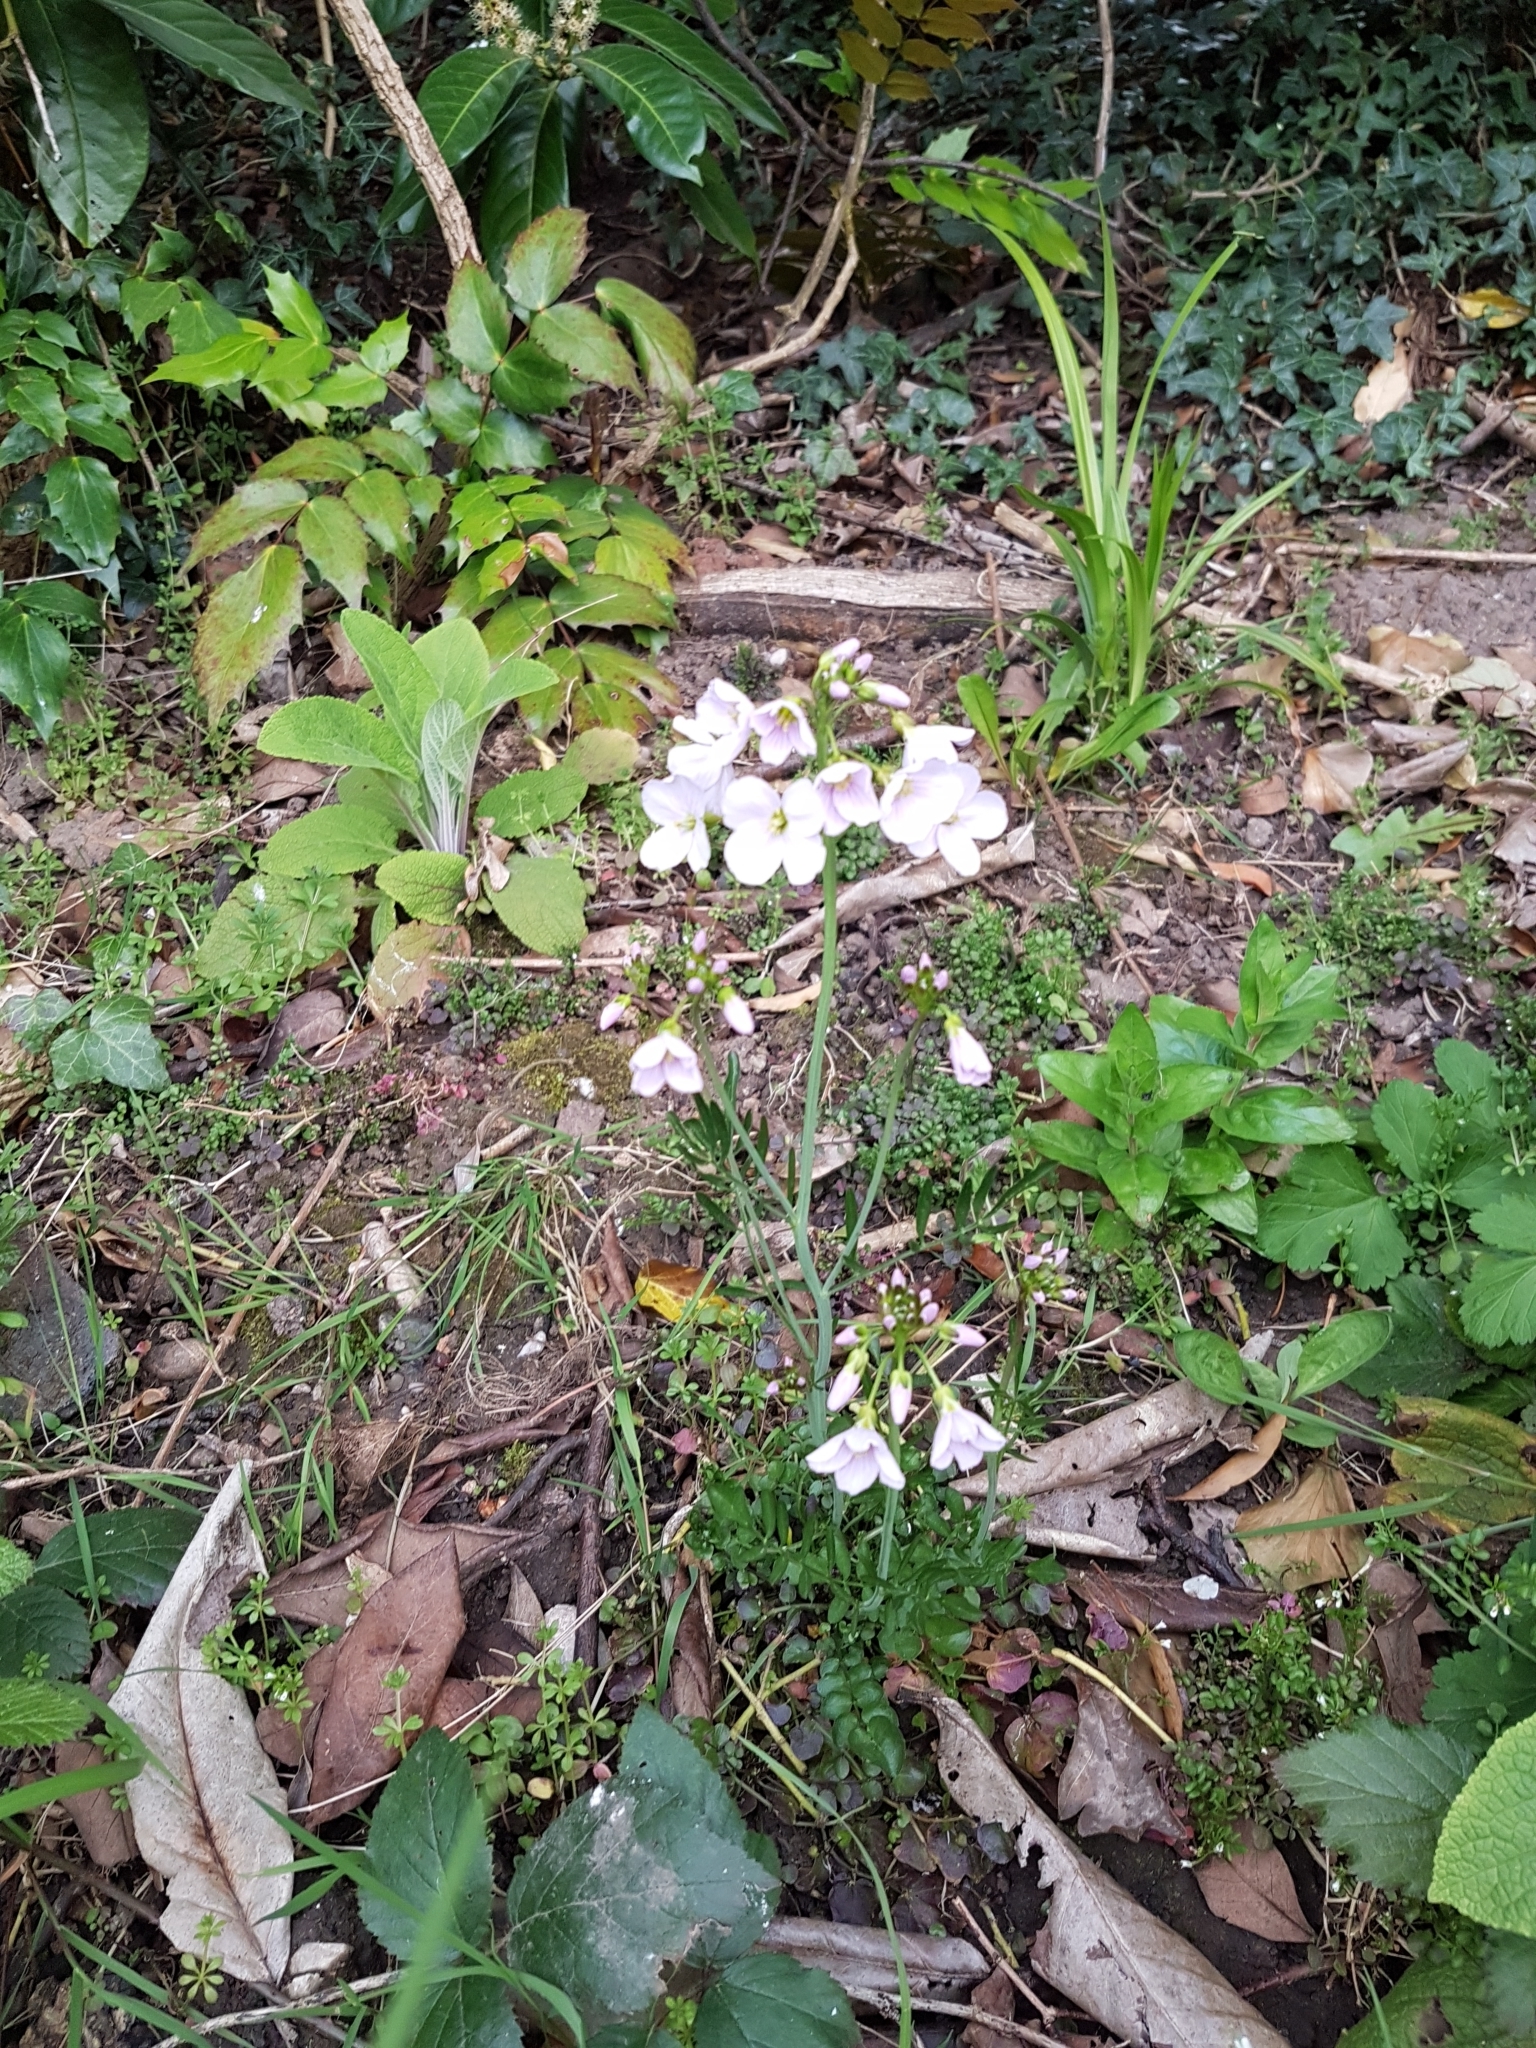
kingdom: Plantae
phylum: Tracheophyta
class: Magnoliopsida
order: Brassicales
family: Brassicaceae
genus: Cardamine
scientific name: Cardamine pratensis
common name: Cuckoo flower
